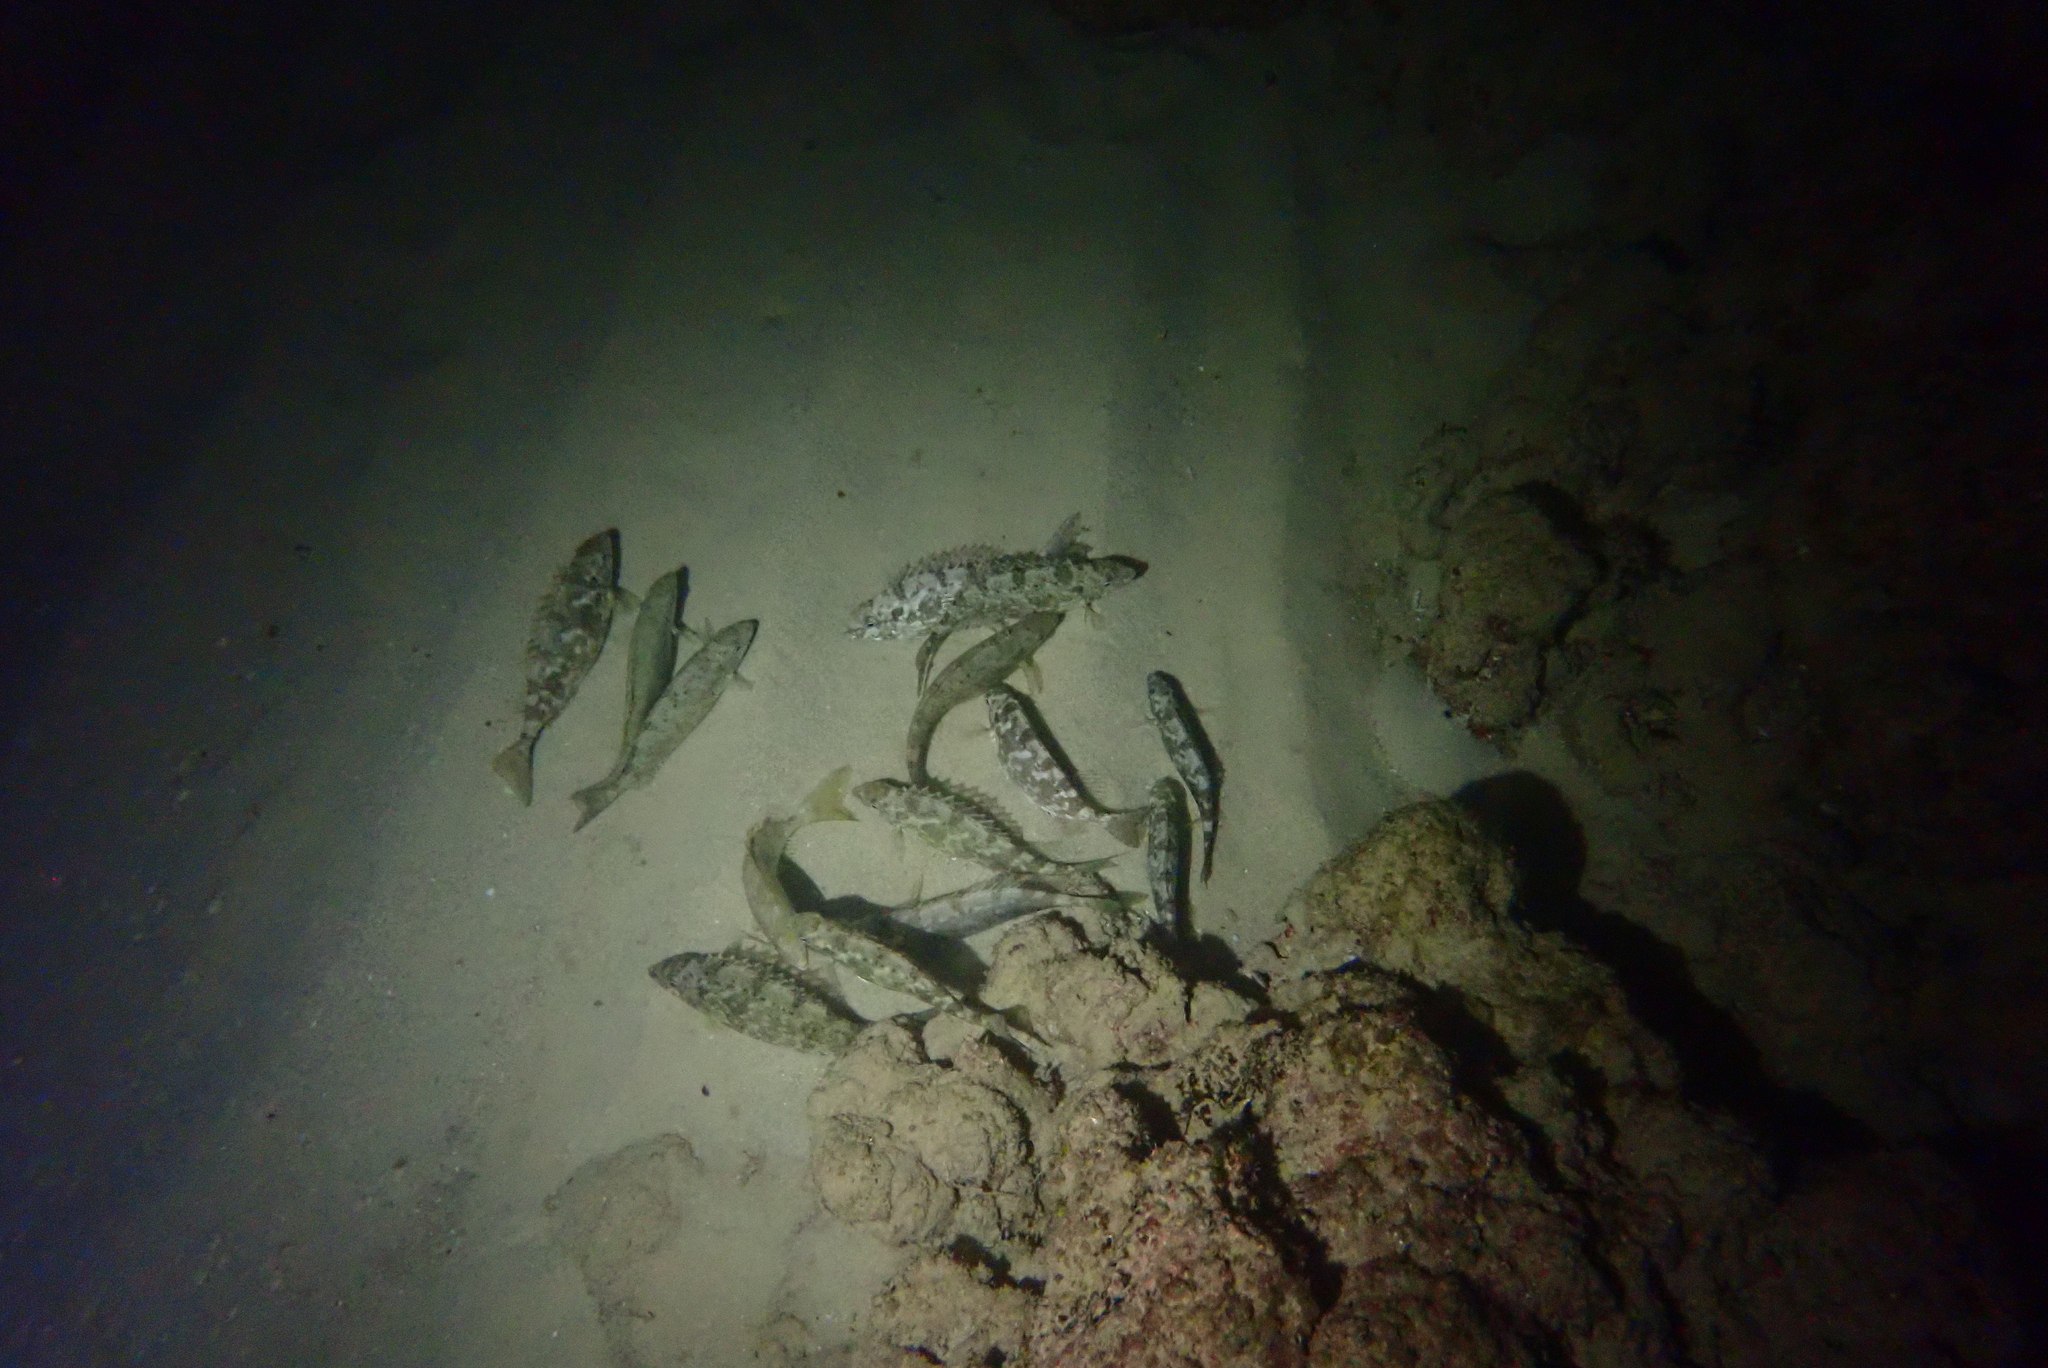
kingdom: Animalia
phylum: Chordata
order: Perciformes
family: Siganidae
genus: Siganus
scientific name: Siganus rivulatus
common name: Marbled spinefoot
